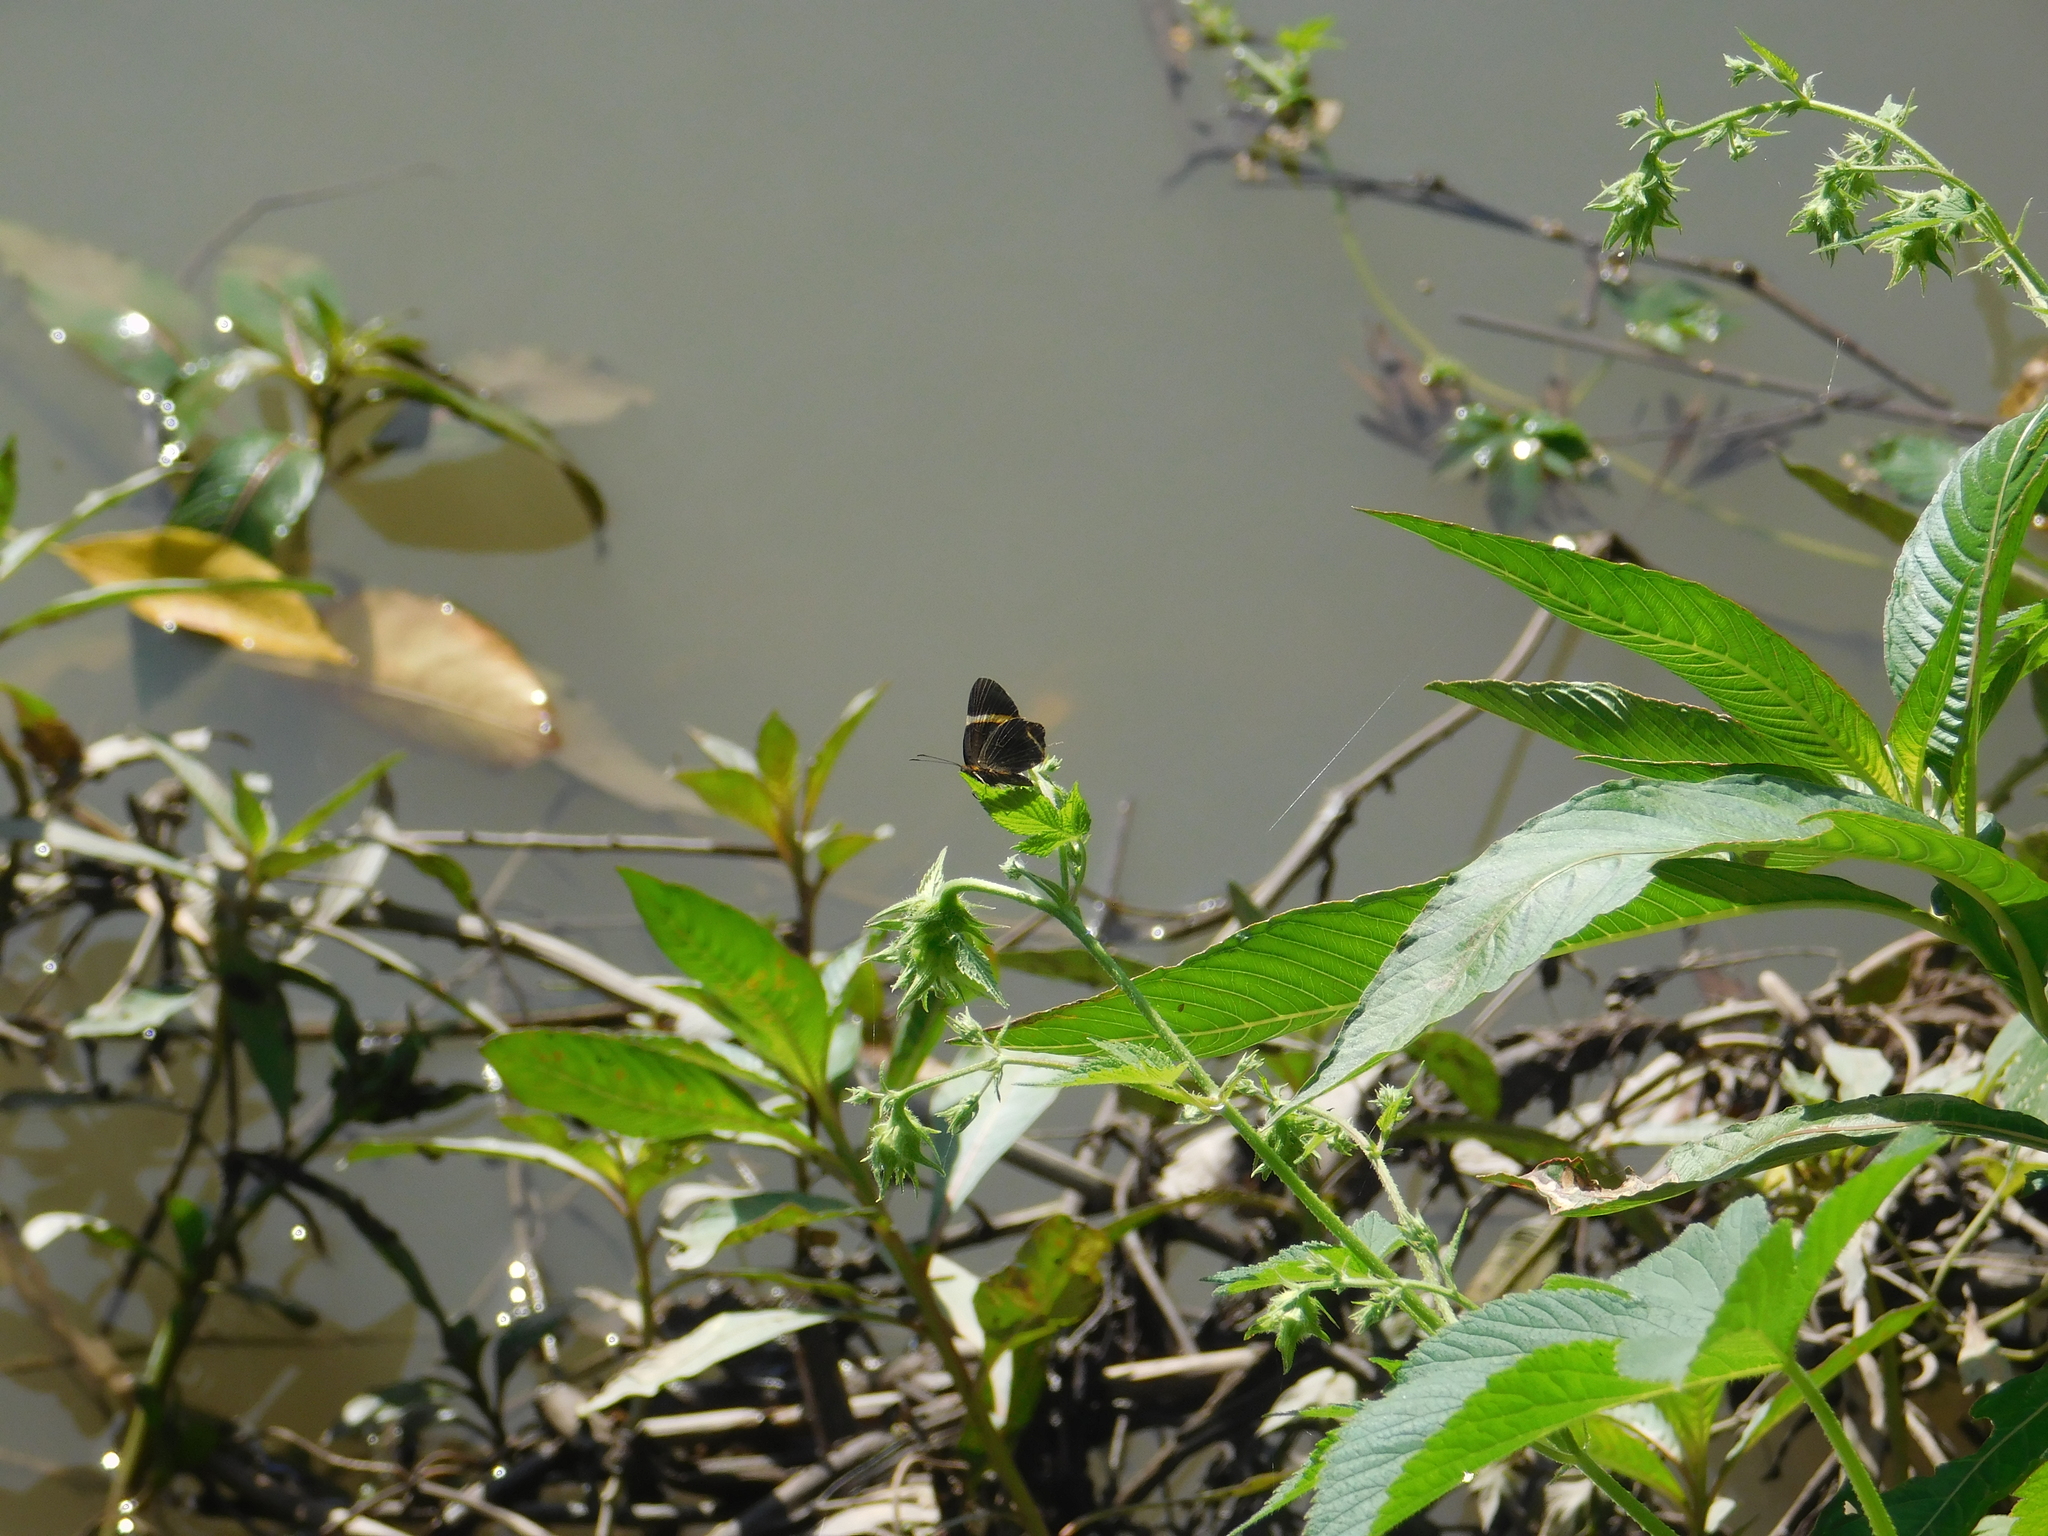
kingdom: Animalia
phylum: Arthropoda
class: Insecta
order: Lepidoptera
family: Riodinidae
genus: Riodina
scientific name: Riodina lysippoides
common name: Little dancer metalmark
